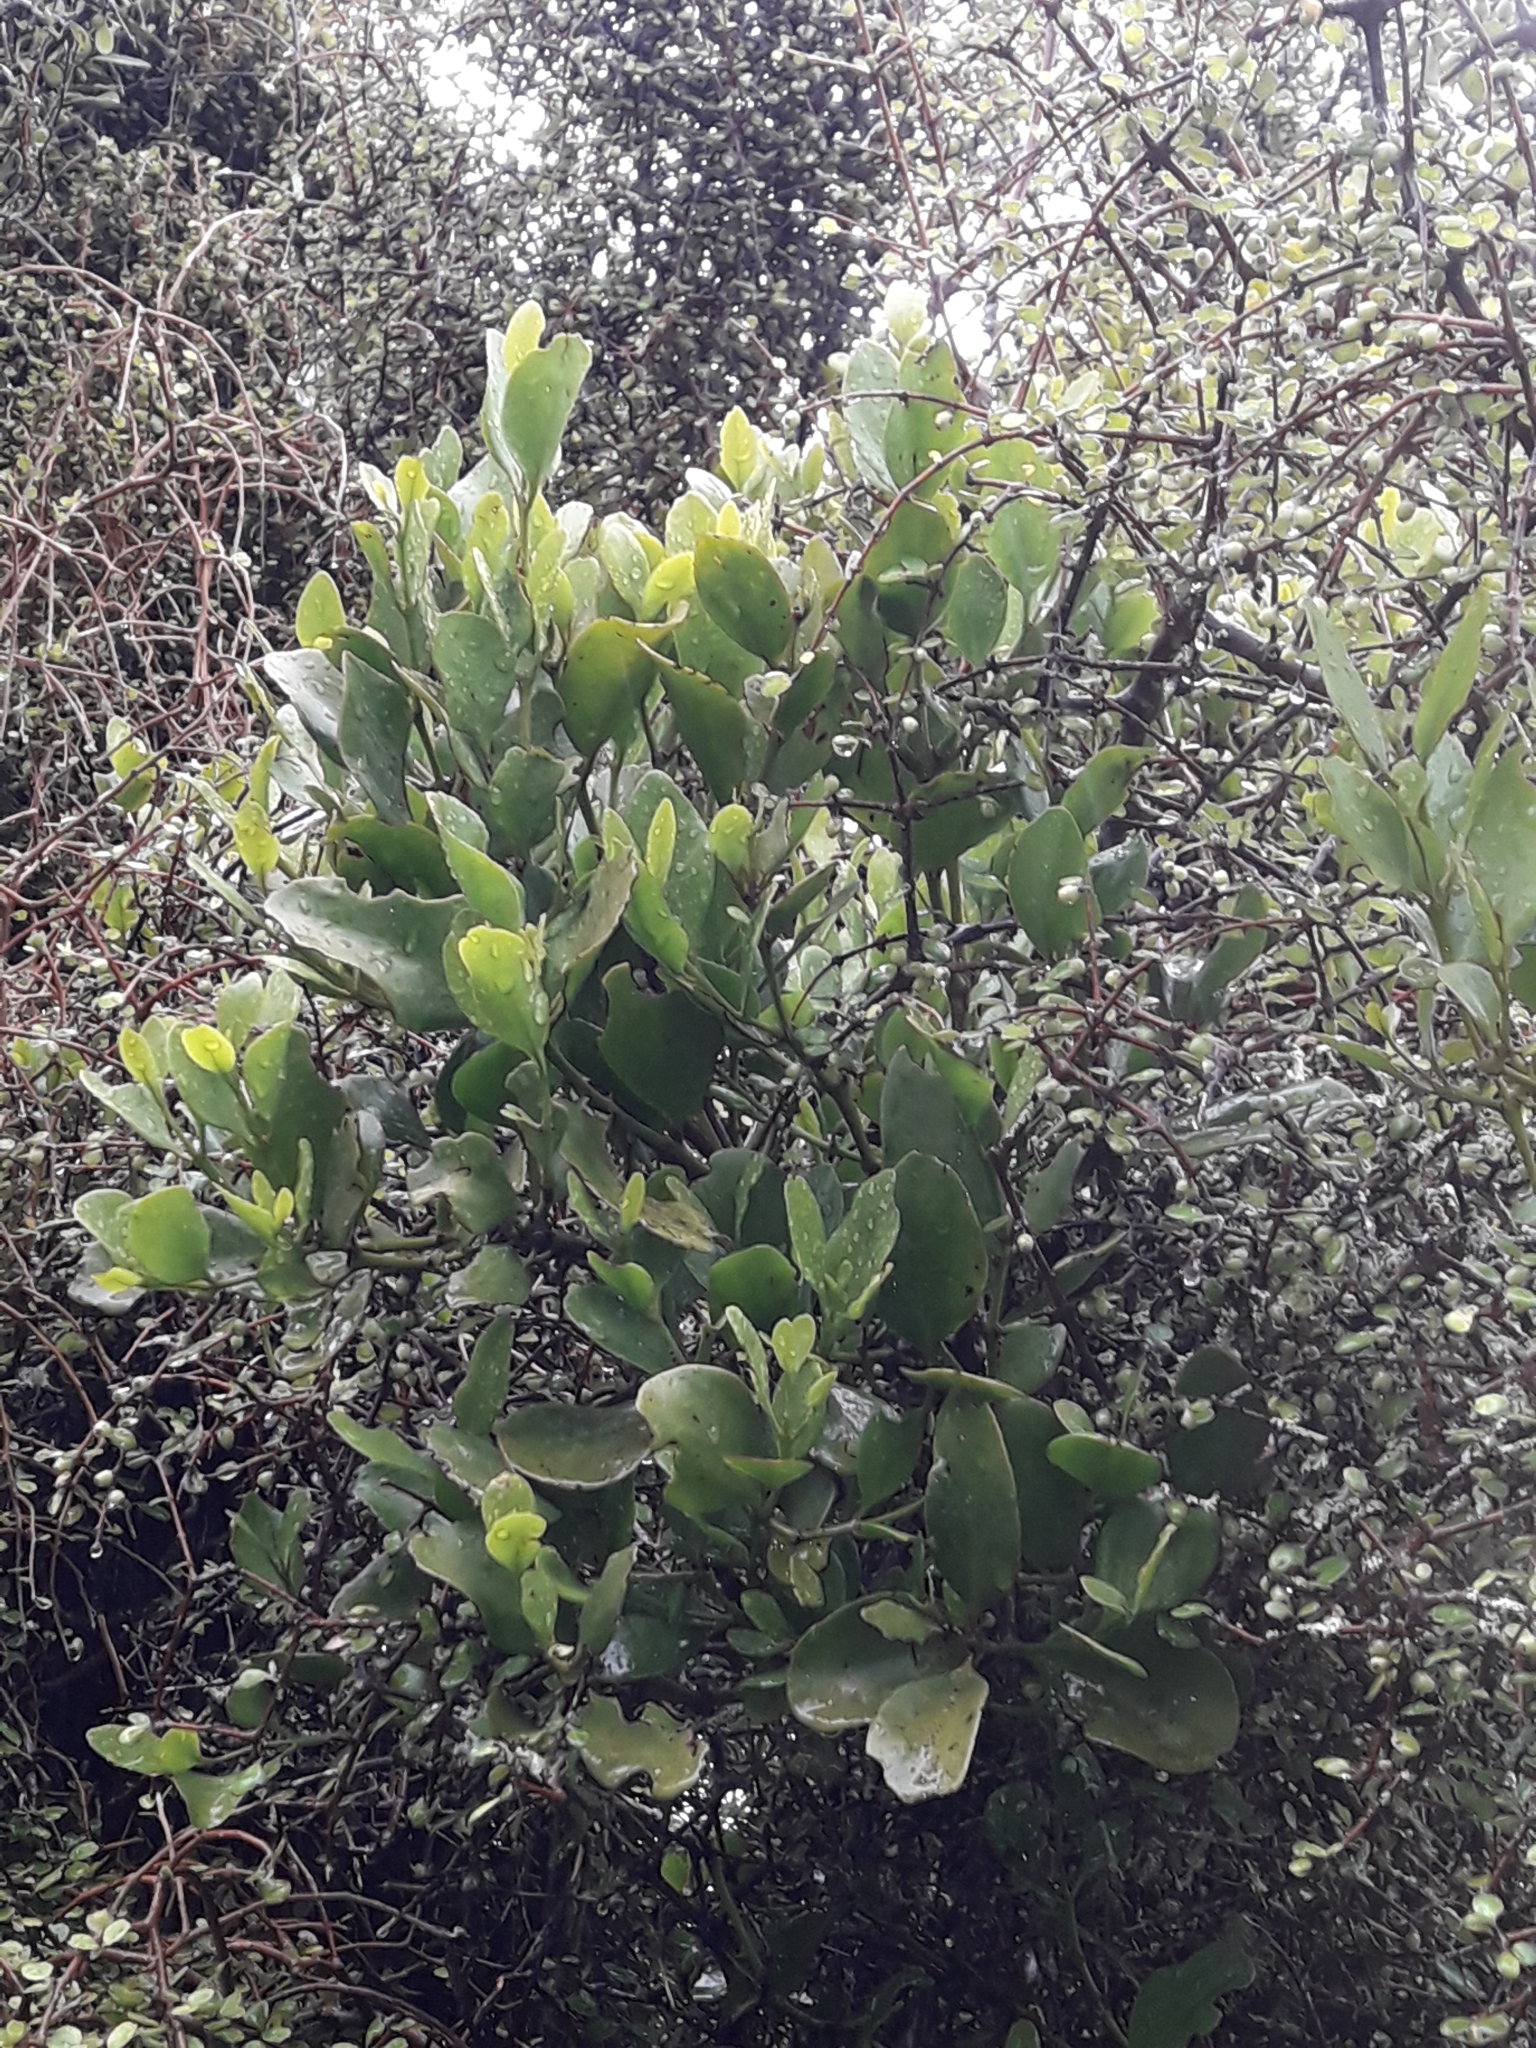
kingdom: Plantae
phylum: Tracheophyta
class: Magnoliopsida
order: Santalales
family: Loranthaceae
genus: Ileostylus
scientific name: Ileostylus micranthus
